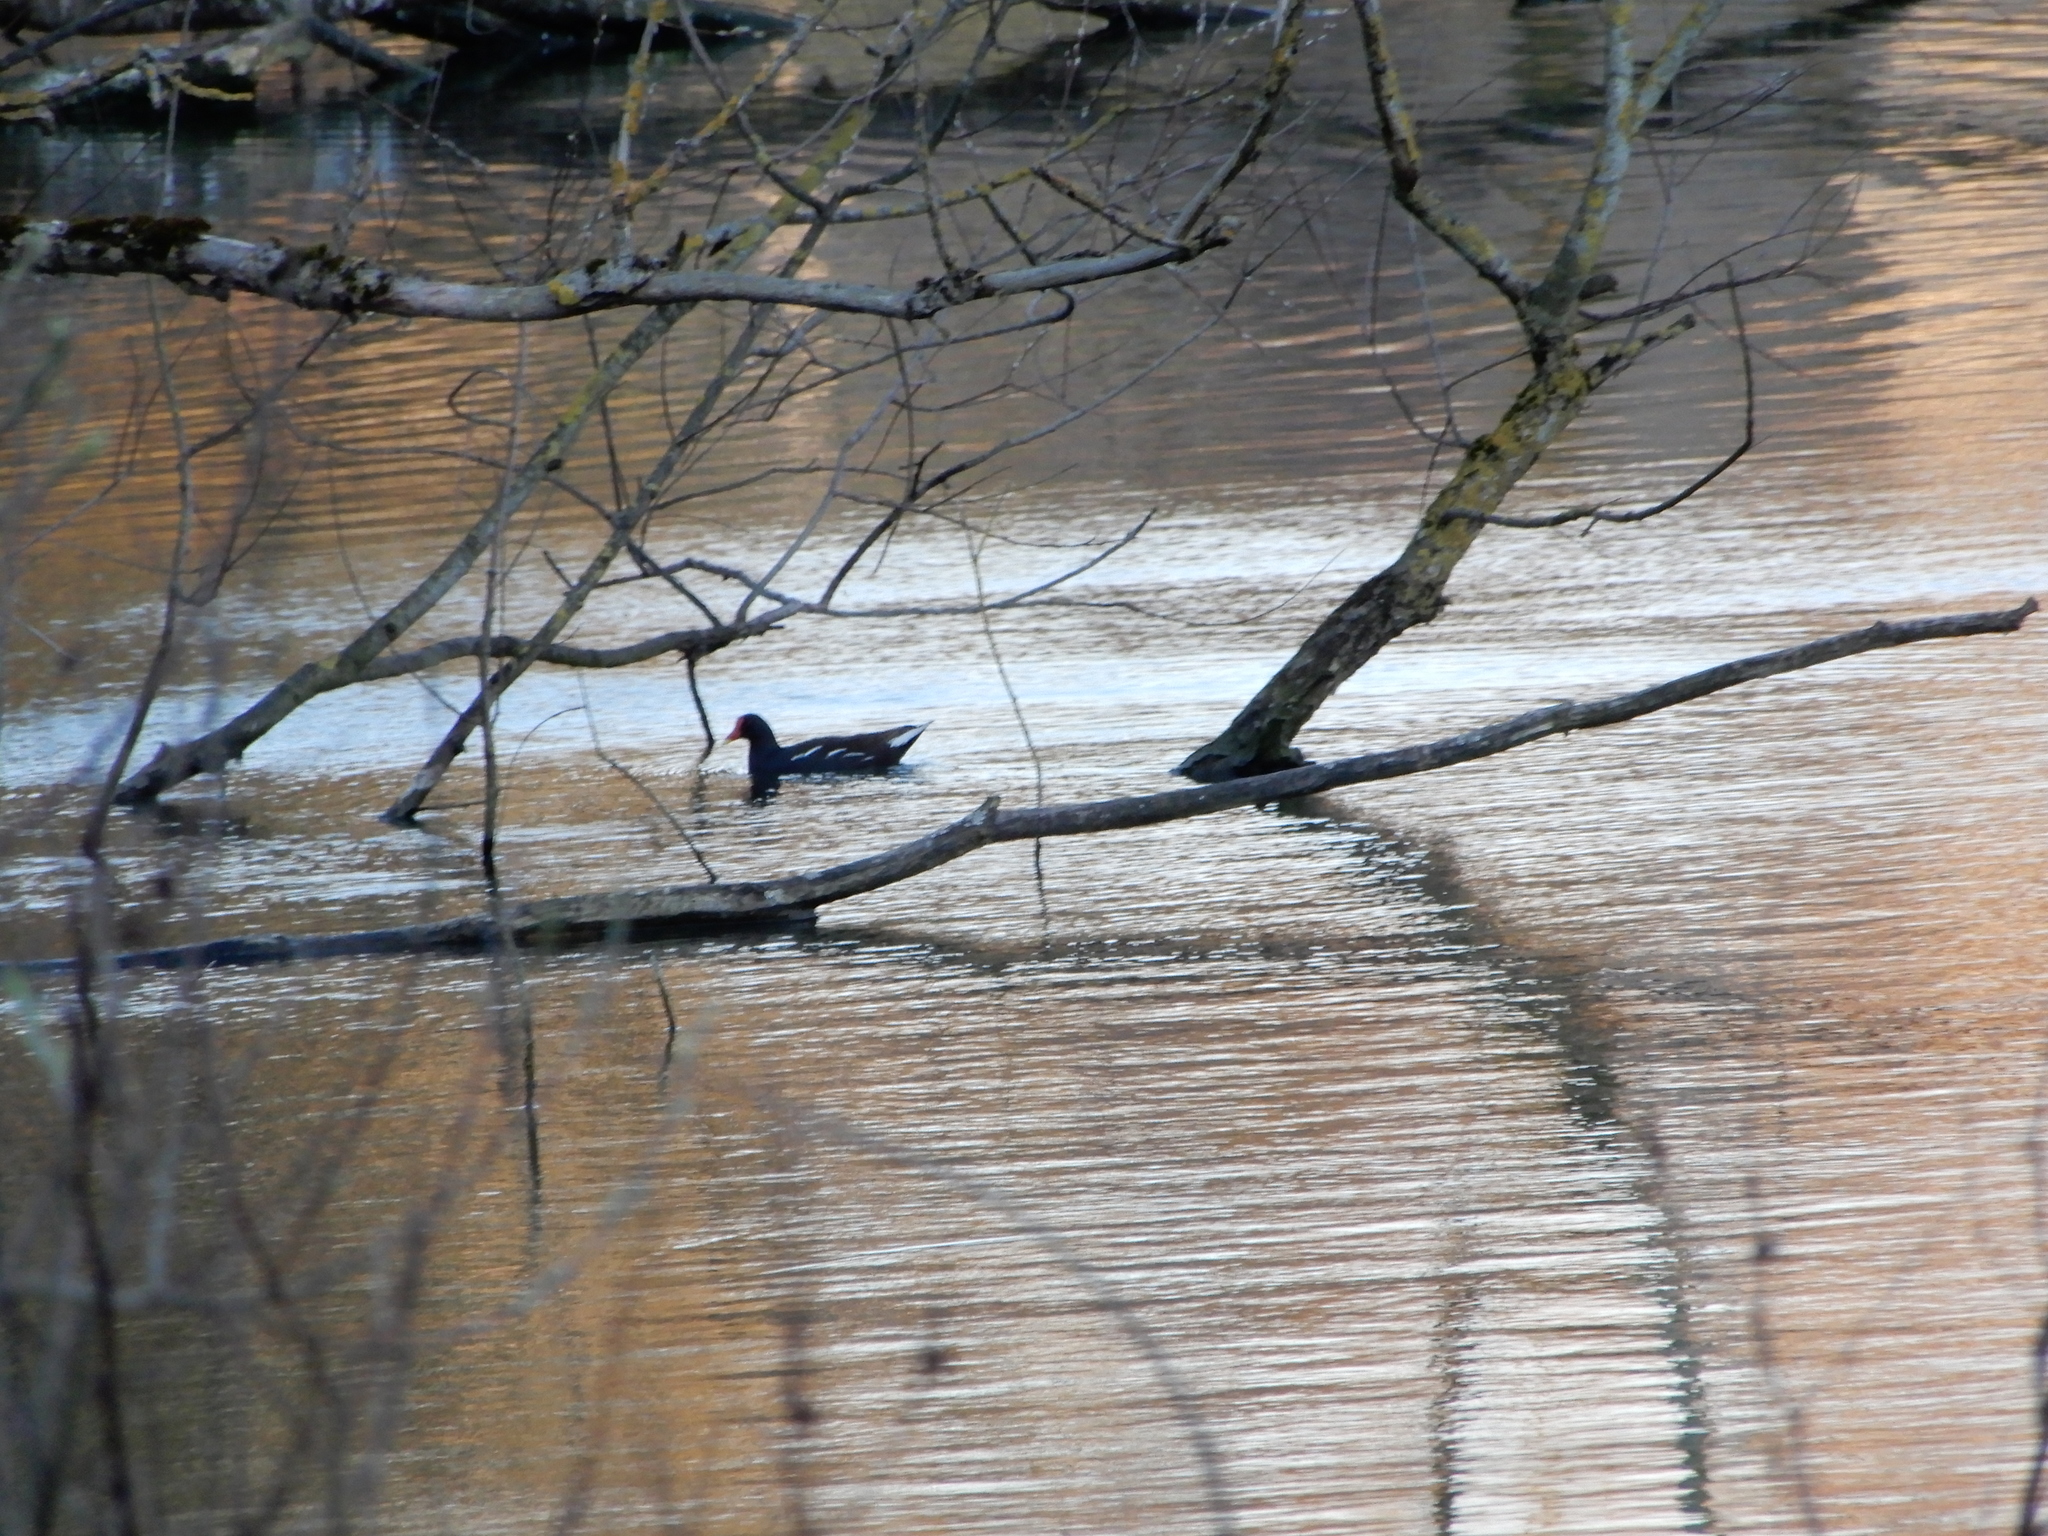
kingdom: Animalia
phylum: Chordata
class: Aves
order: Gruiformes
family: Rallidae
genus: Gallinula
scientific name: Gallinula chloropus
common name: Common moorhen
